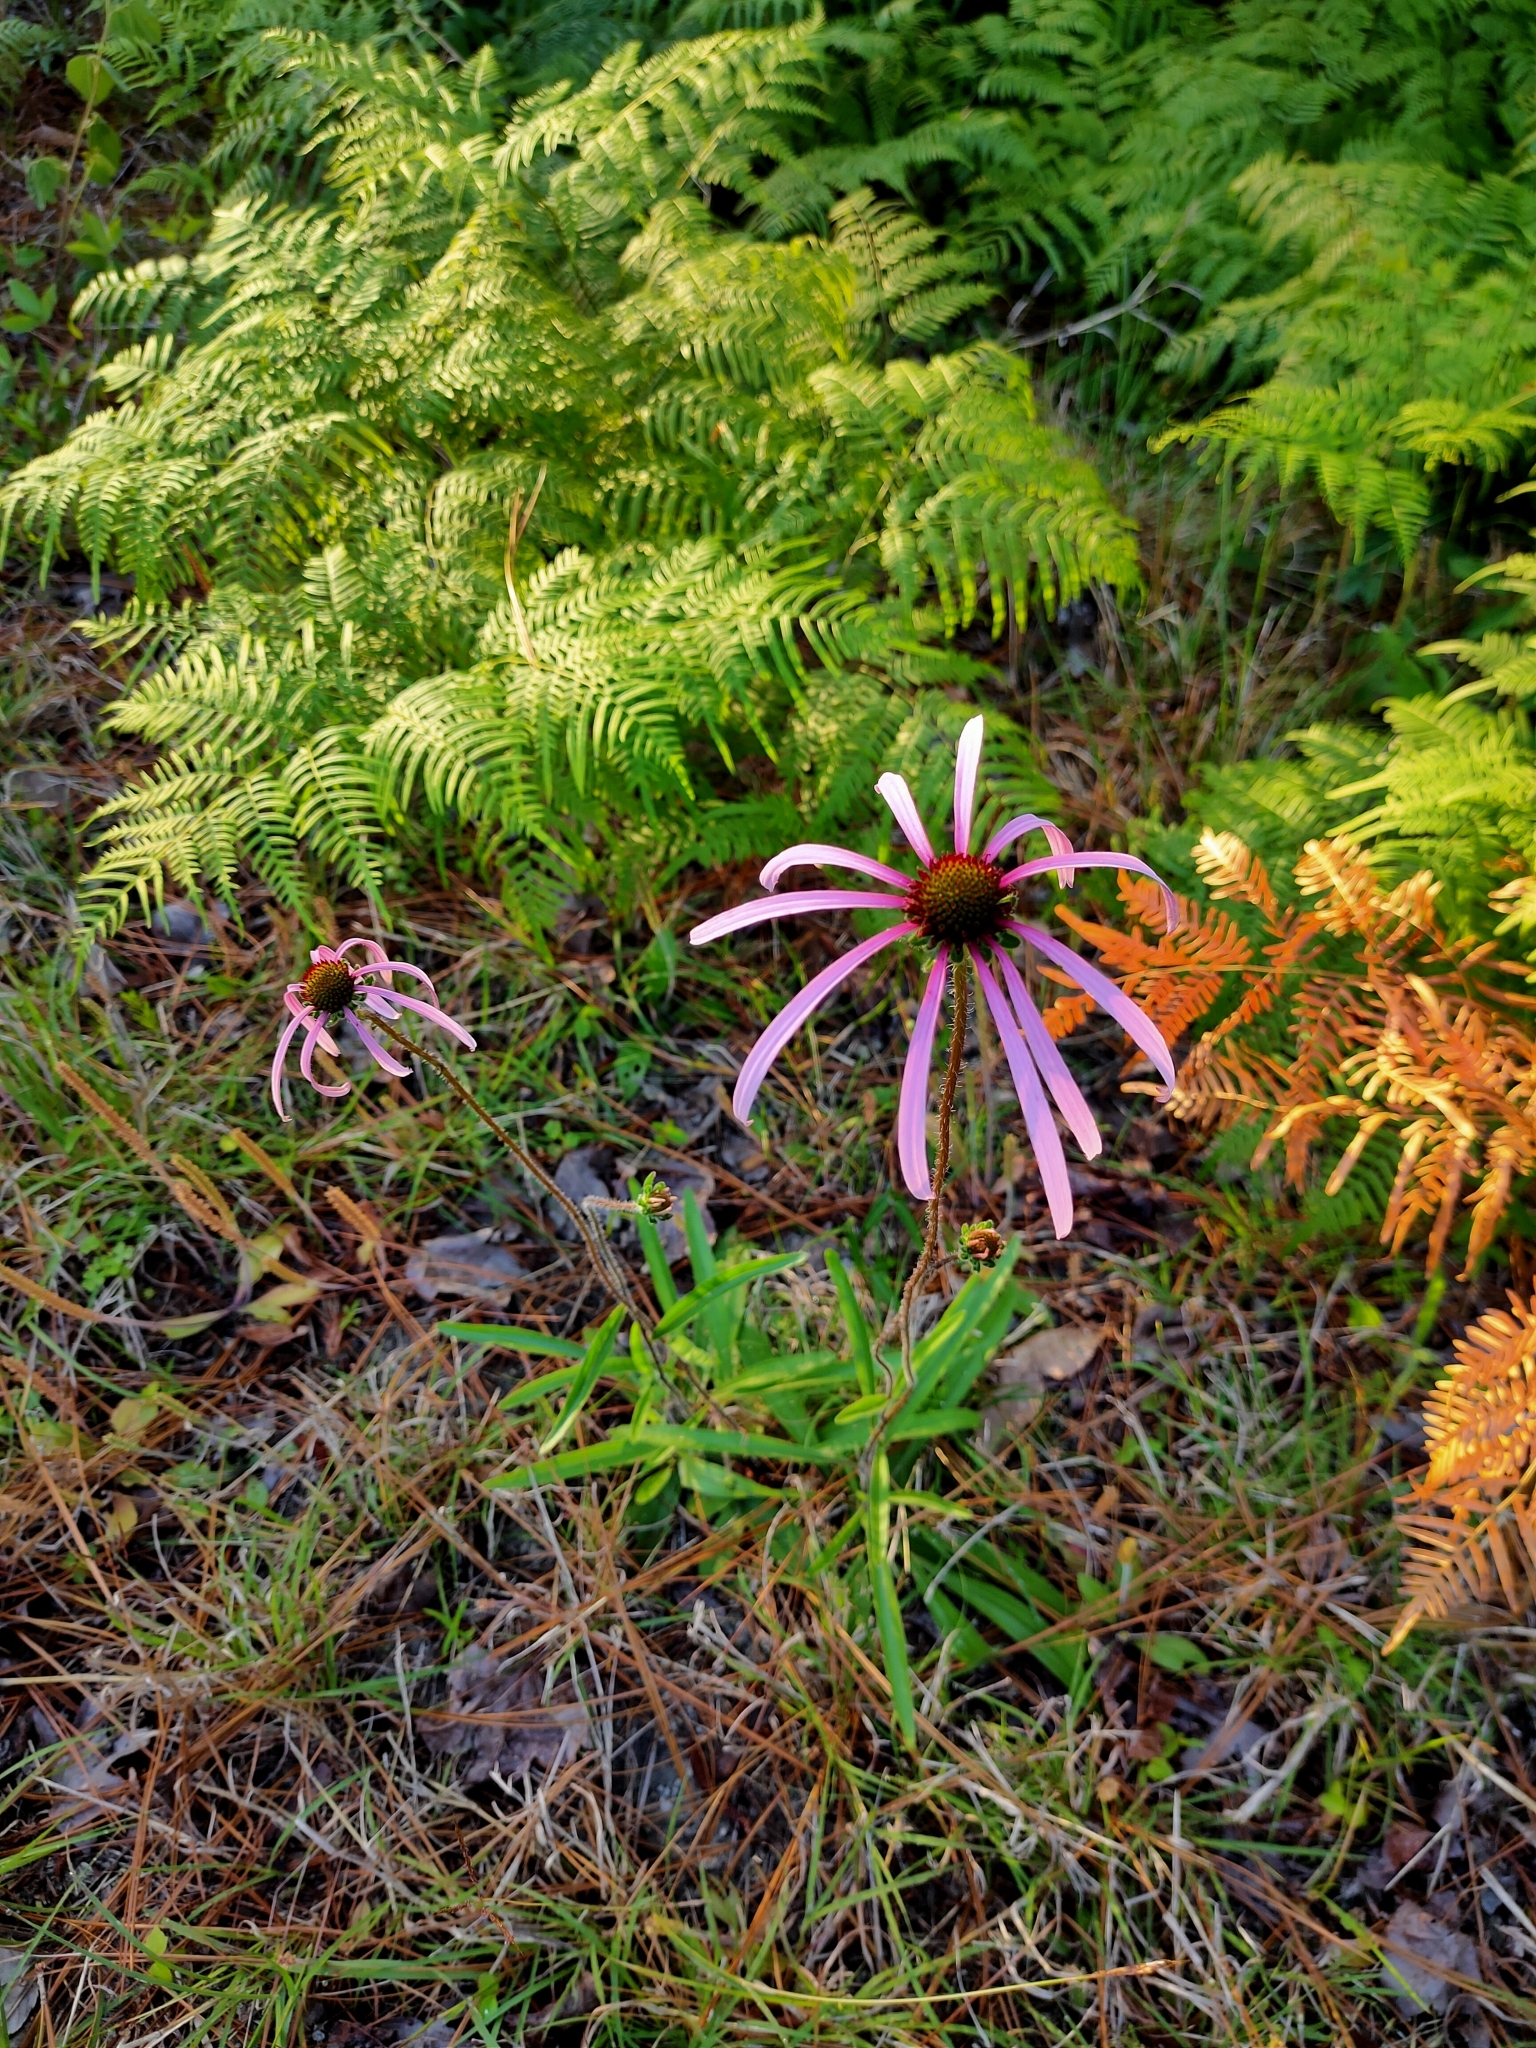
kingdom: Plantae
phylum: Tracheophyta
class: Magnoliopsida
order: Asterales
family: Asteraceae
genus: Echinacea
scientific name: Echinacea sanguinea
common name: Sanguine purple-coneflower
